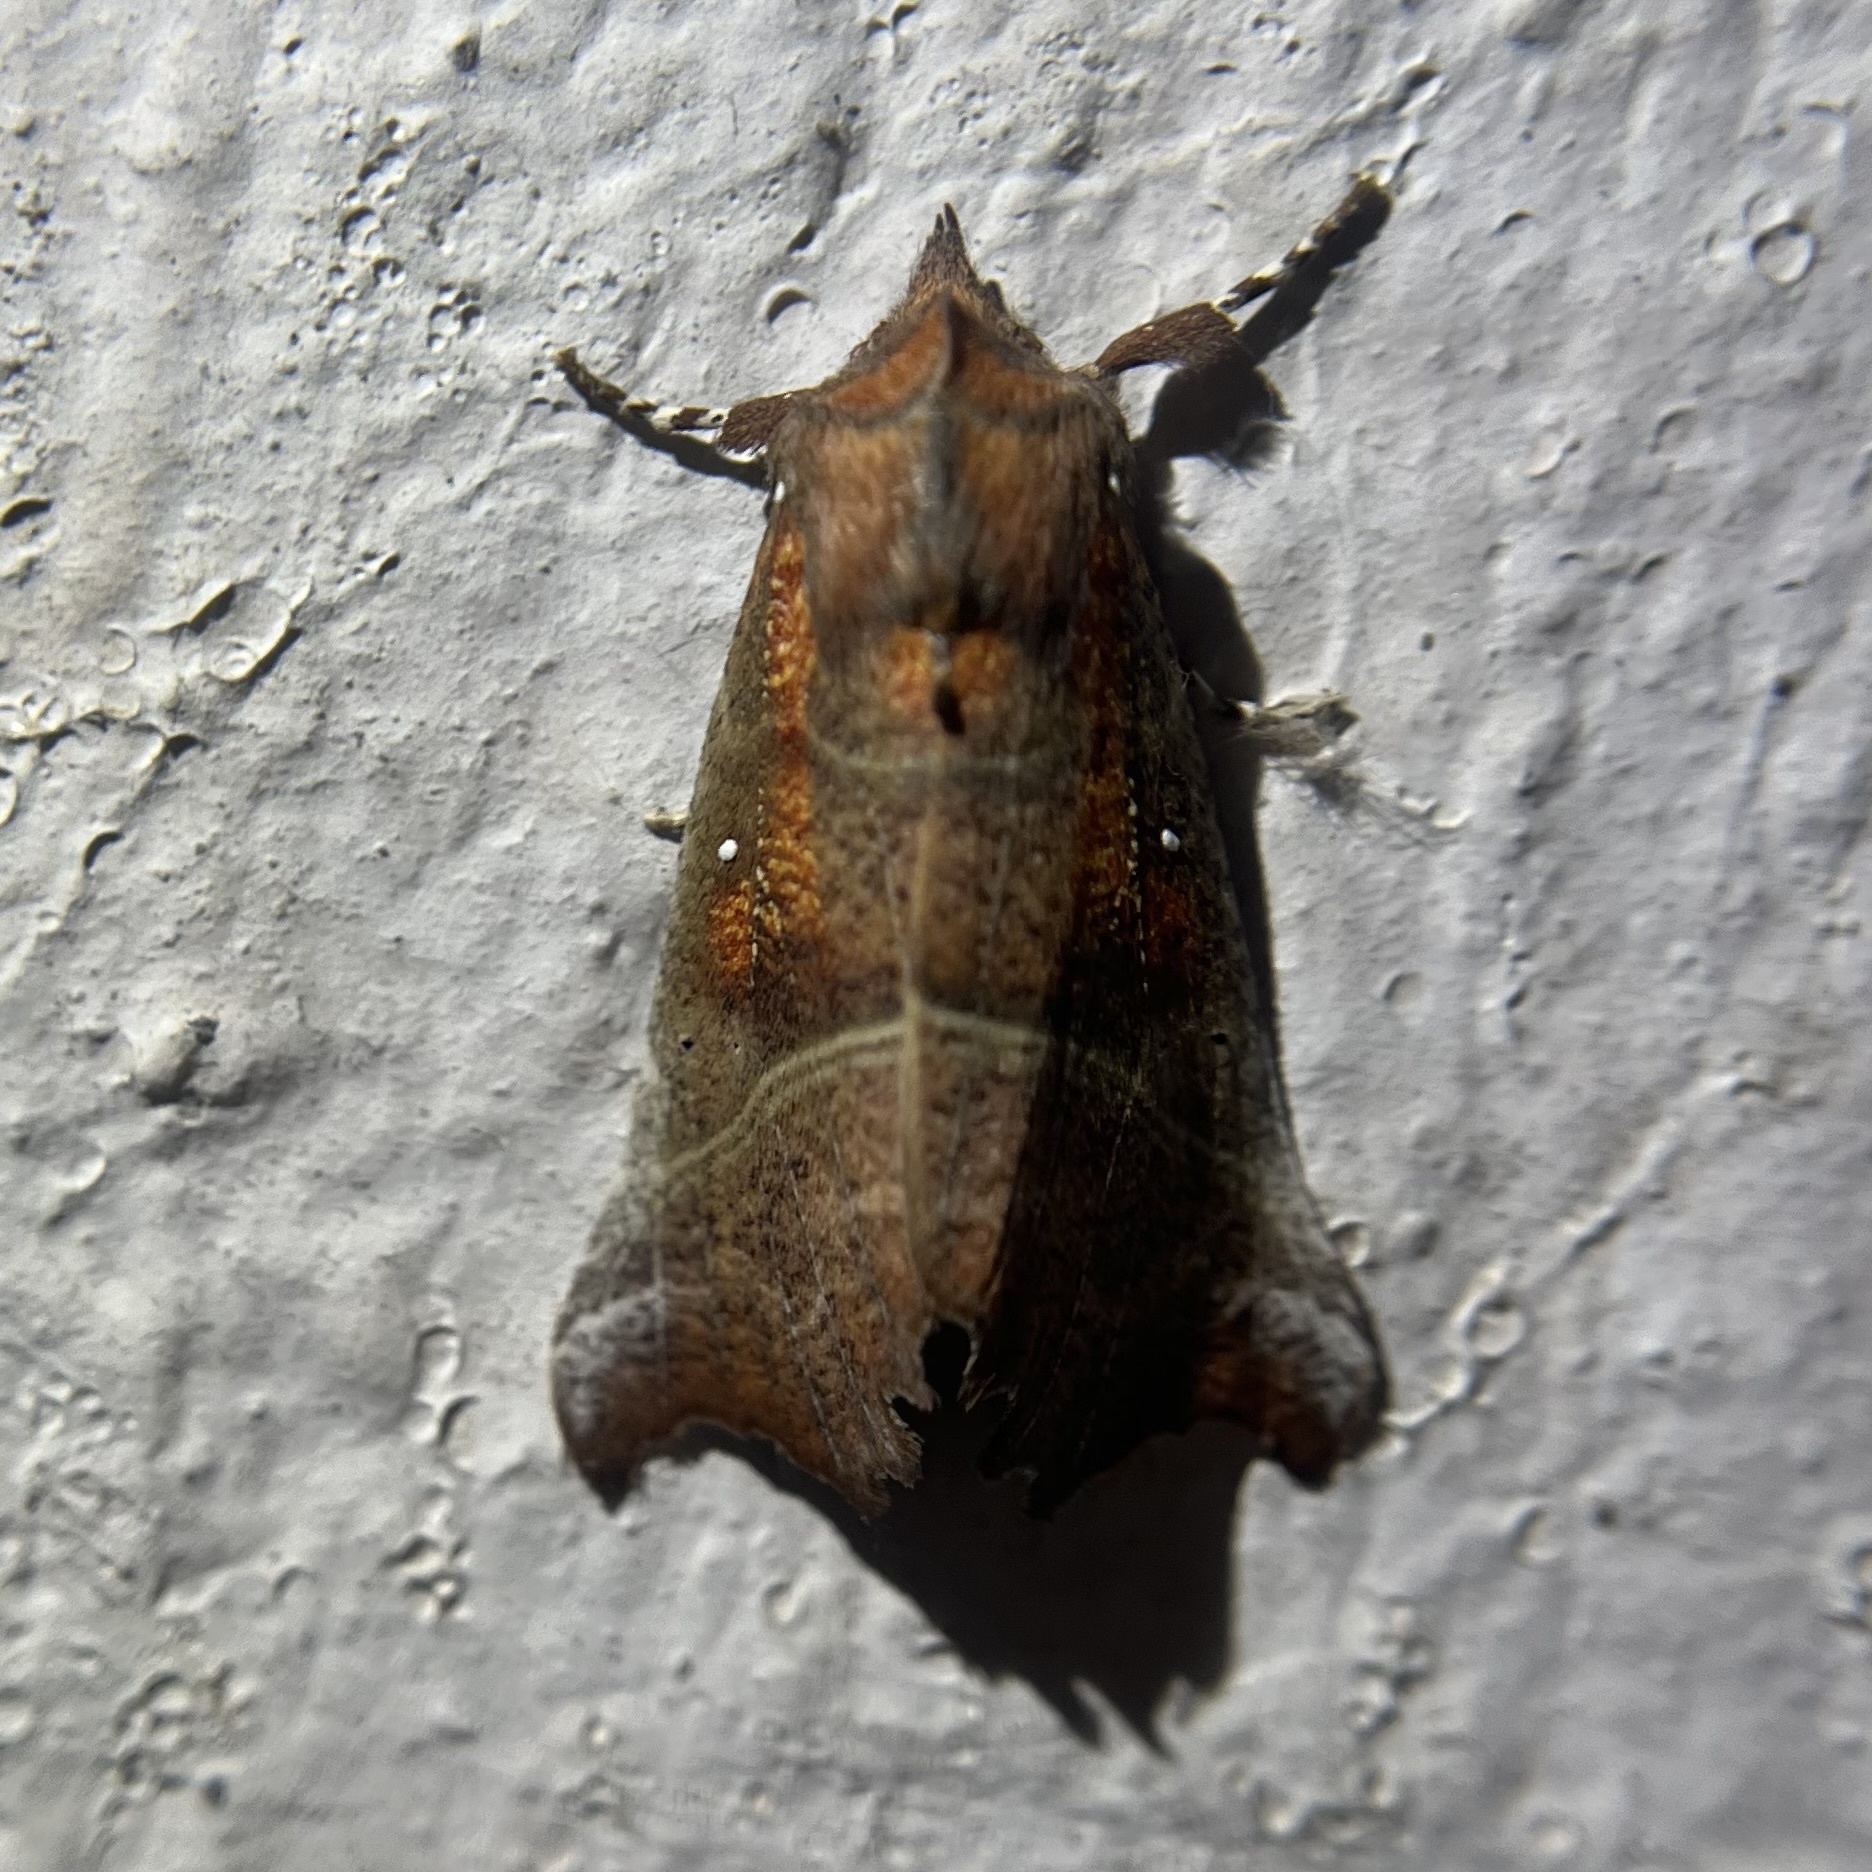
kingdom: Animalia
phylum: Arthropoda
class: Insecta
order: Lepidoptera
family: Erebidae
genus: Scoliopteryx
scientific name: Scoliopteryx libatrix
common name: Herald
